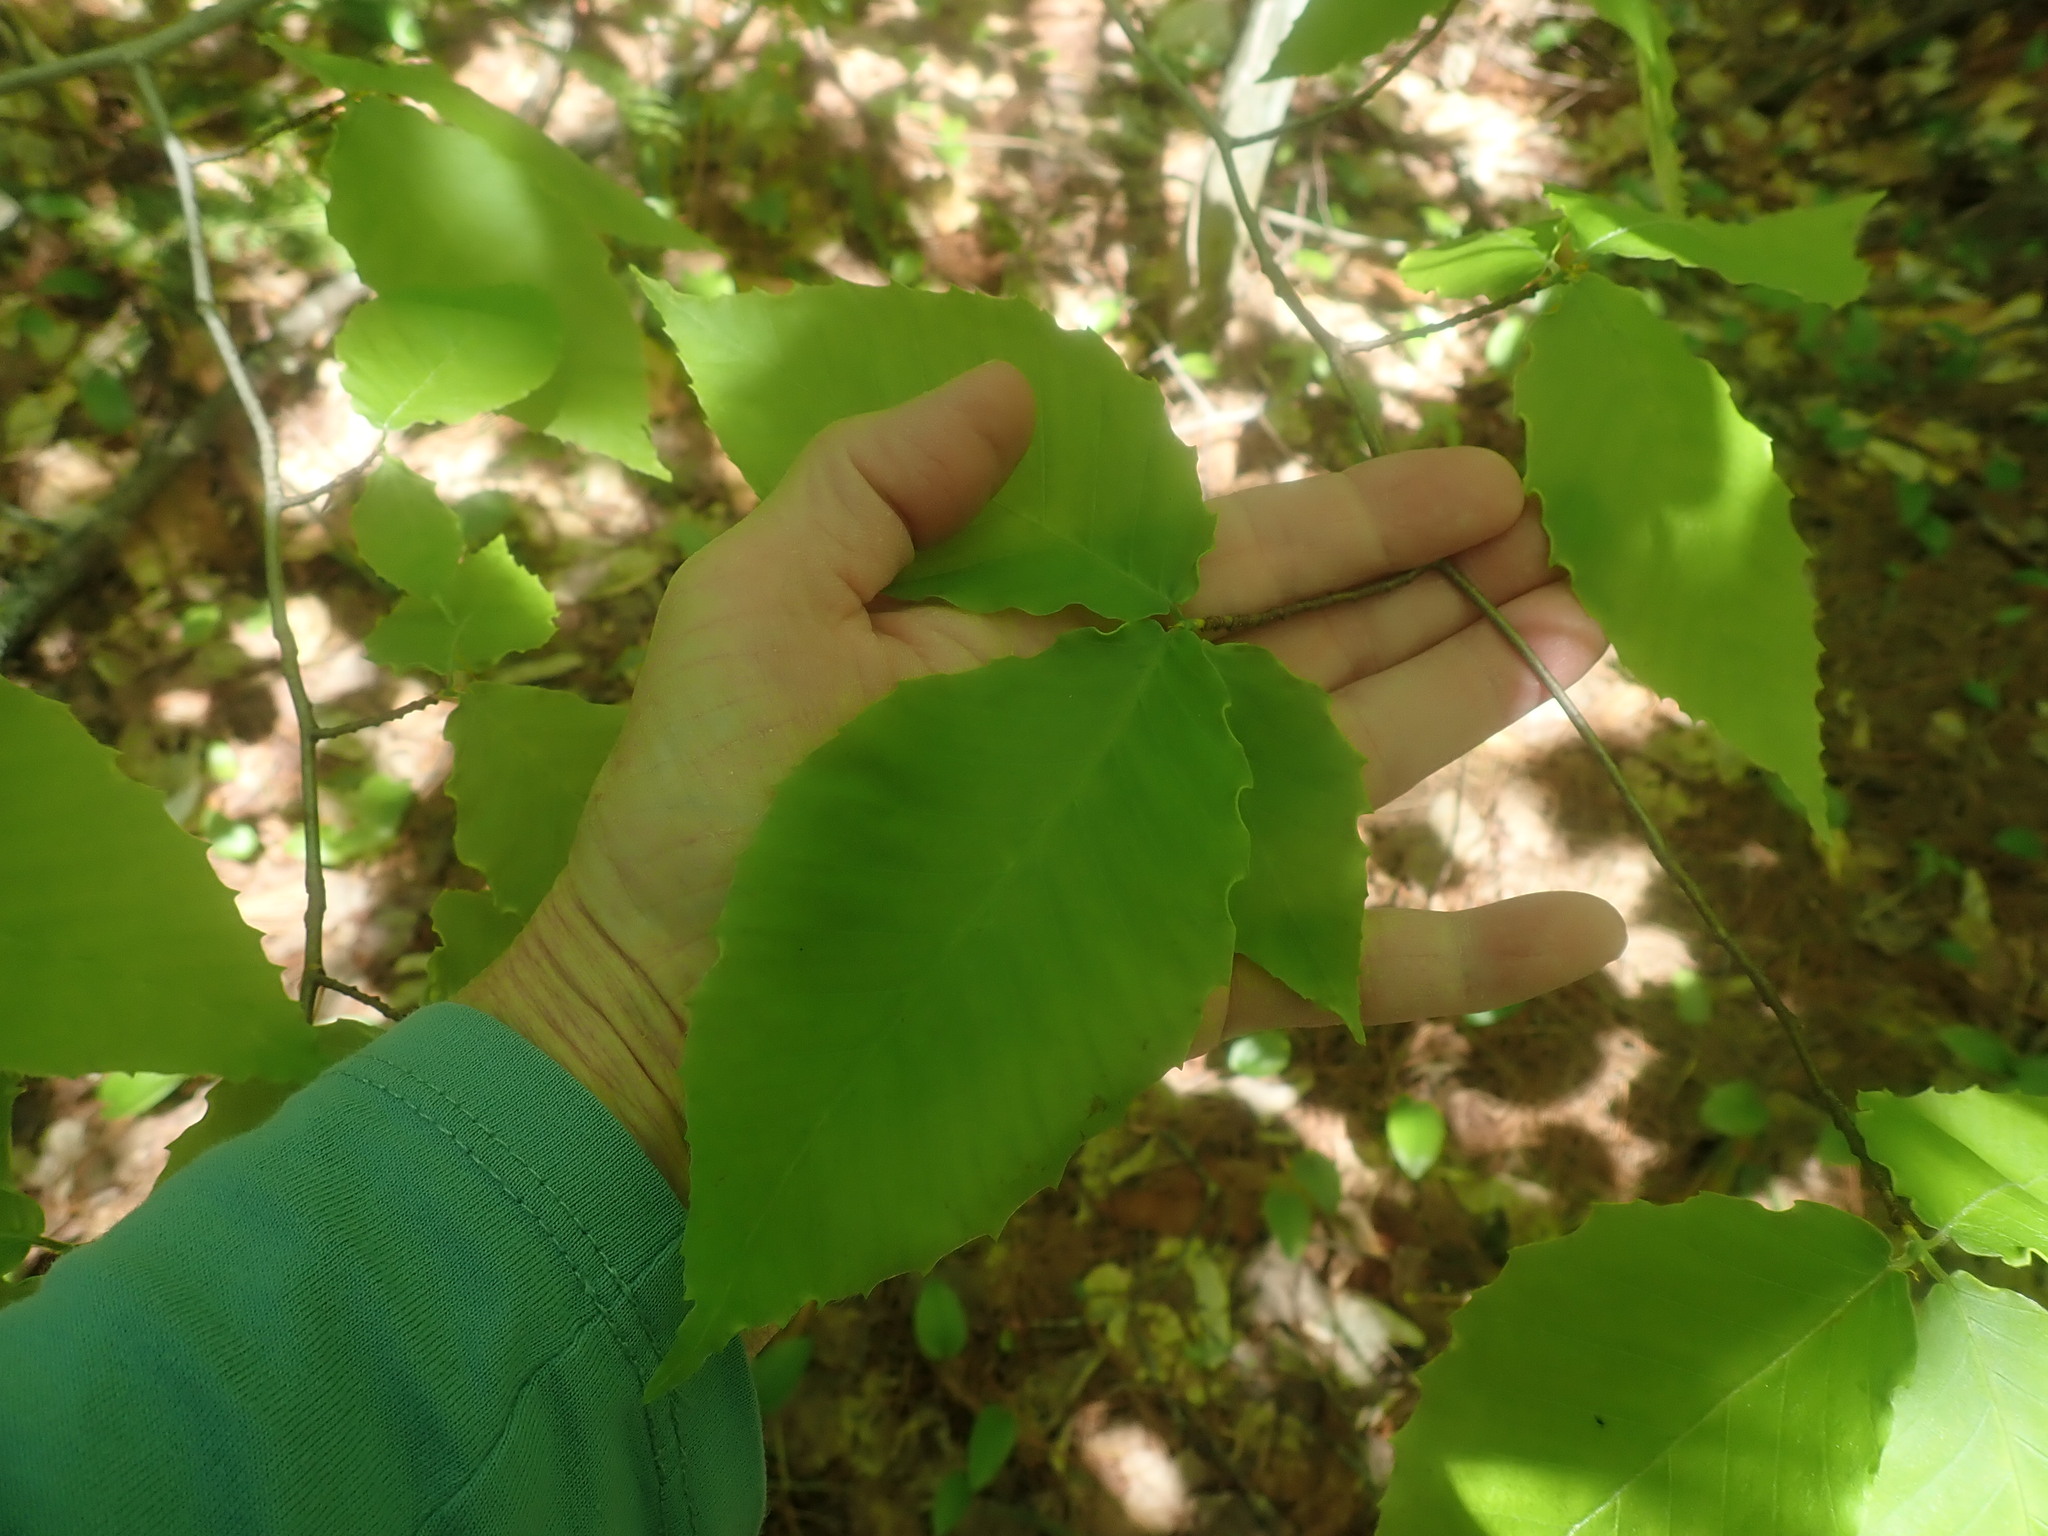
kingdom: Plantae
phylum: Tracheophyta
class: Magnoliopsida
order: Fagales
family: Fagaceae
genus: Fagus
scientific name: Fagus grandifolia
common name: American beech
